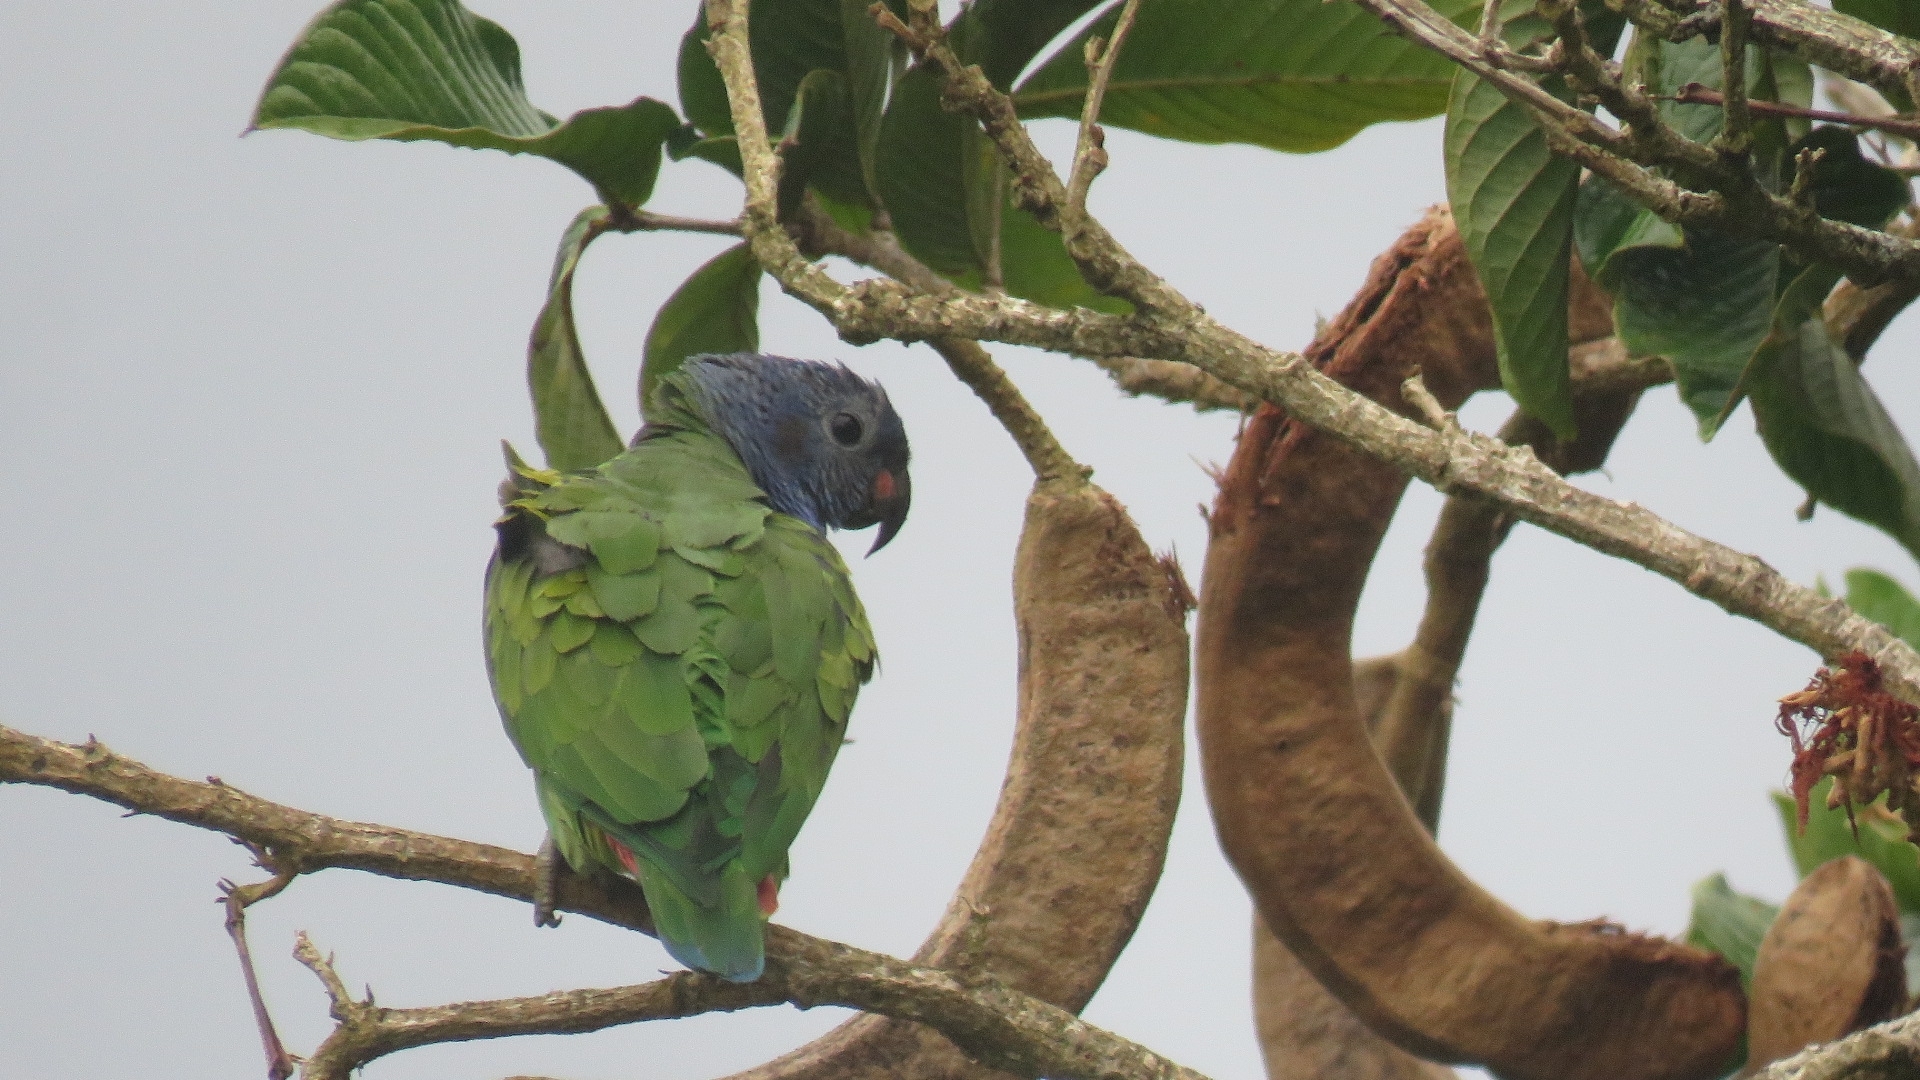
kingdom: Animalia
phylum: Chordata
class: Aves
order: Psittaciformes
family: Psittacidae
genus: Pionus
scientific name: Pionus menstruus
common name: Blue-headed parrot
